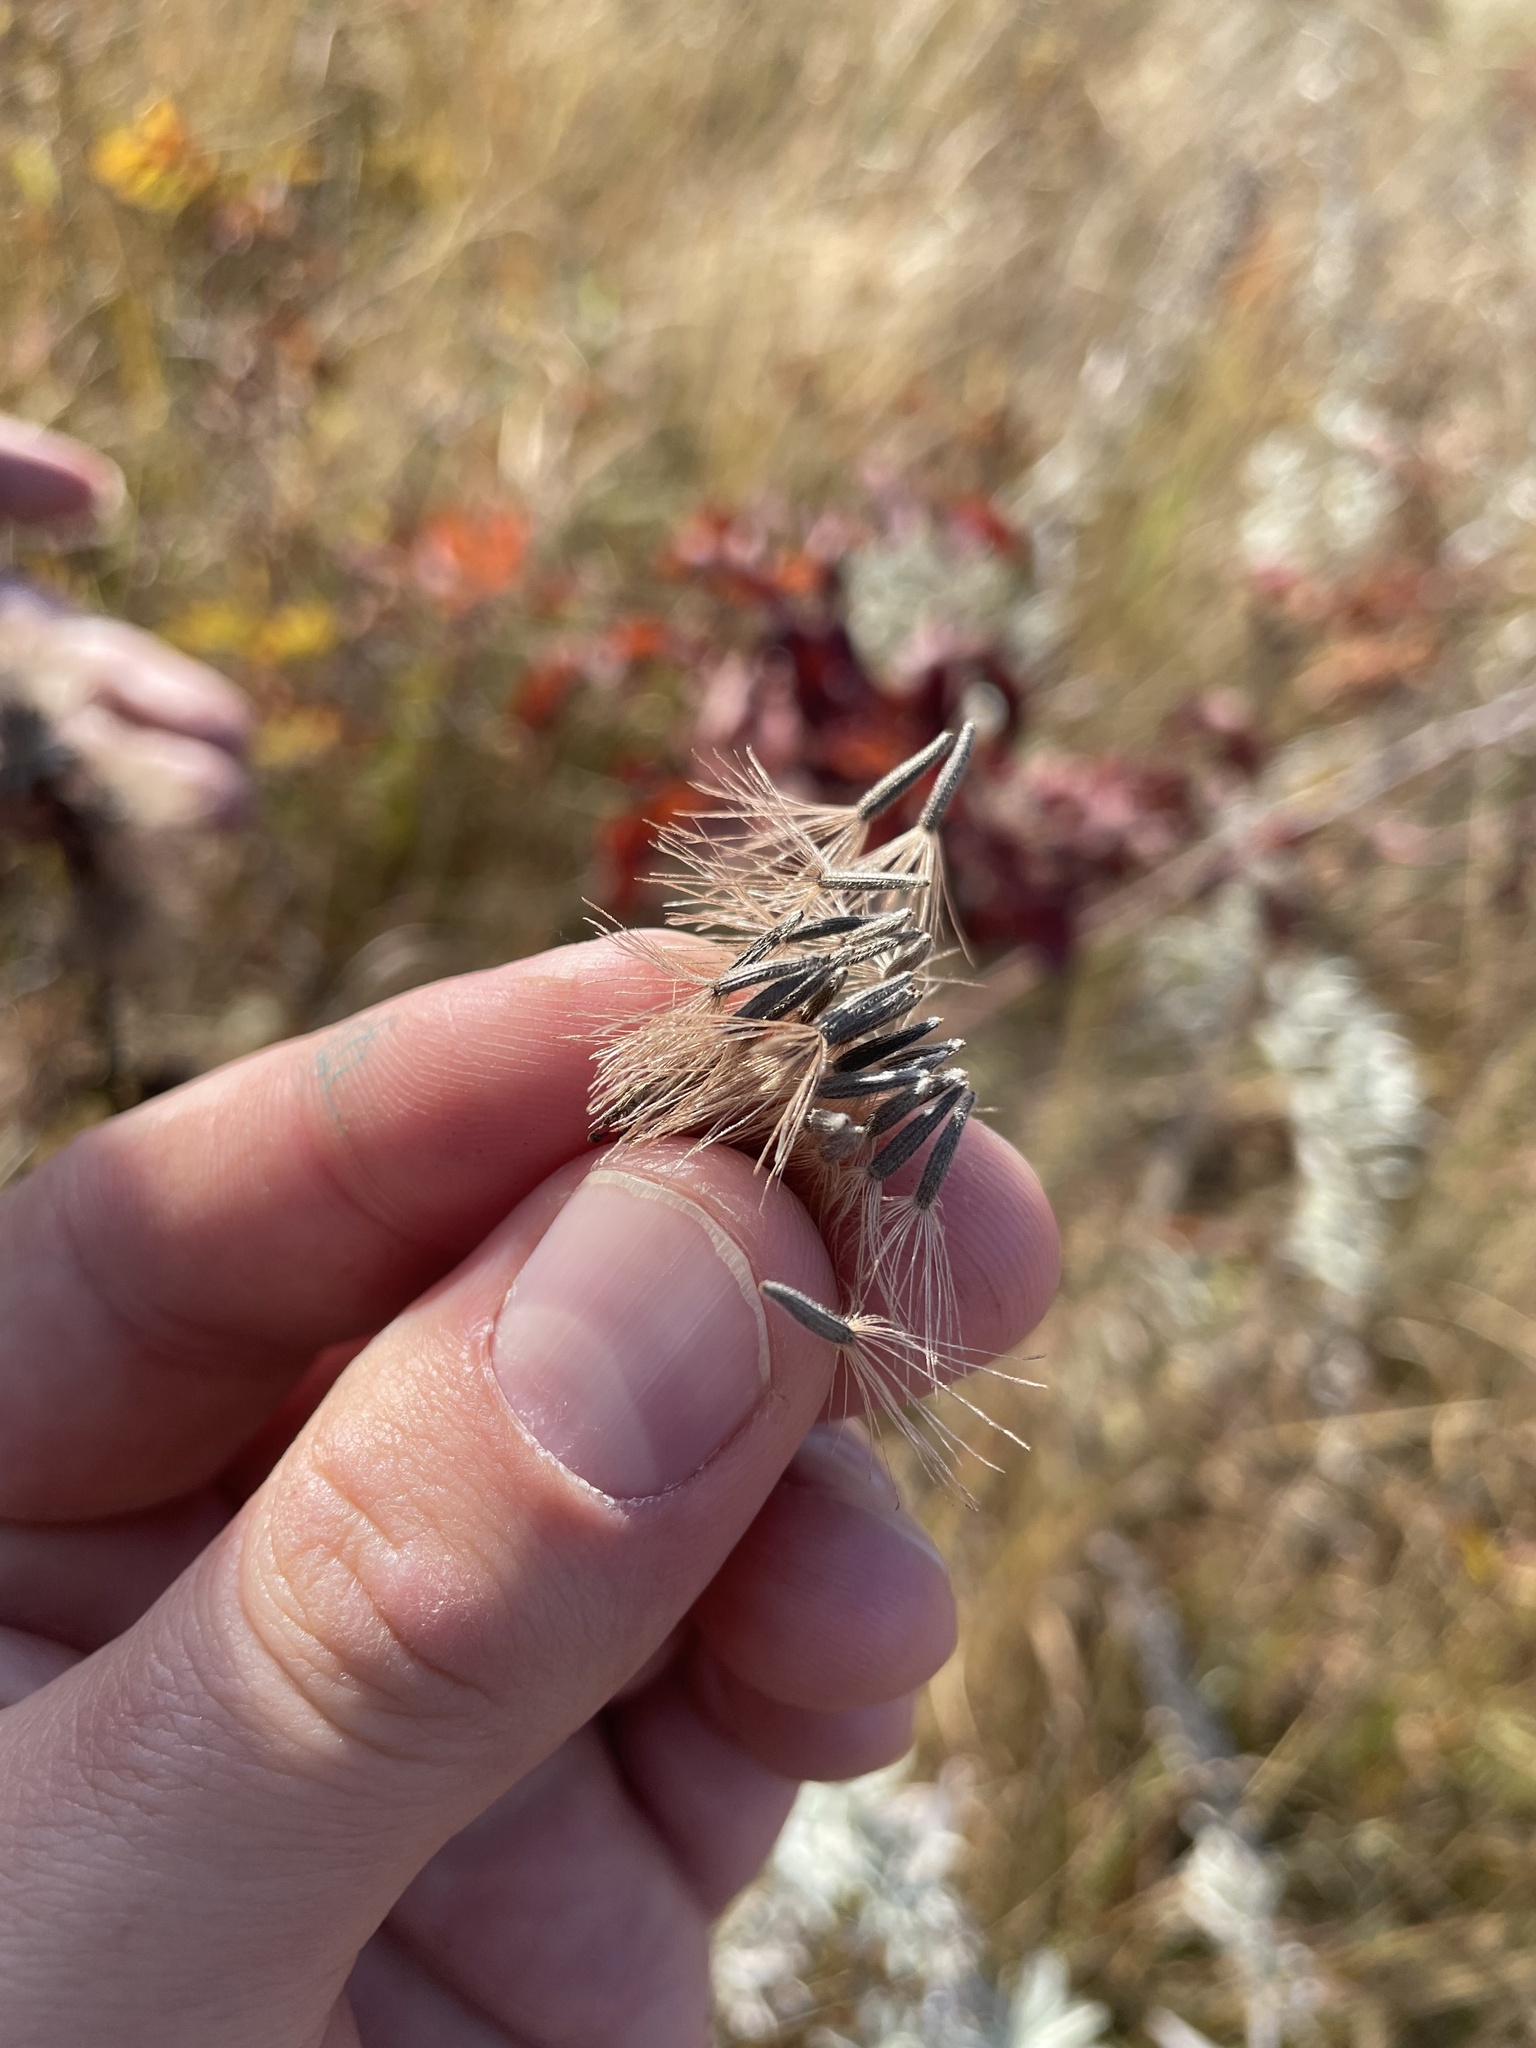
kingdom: Plantae
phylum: Tracheophyta
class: Magnoliopsida
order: Asterales
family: Asteraceae
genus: Liatris
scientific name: Liatris ligulistylis
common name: Northern plains gayfeather
